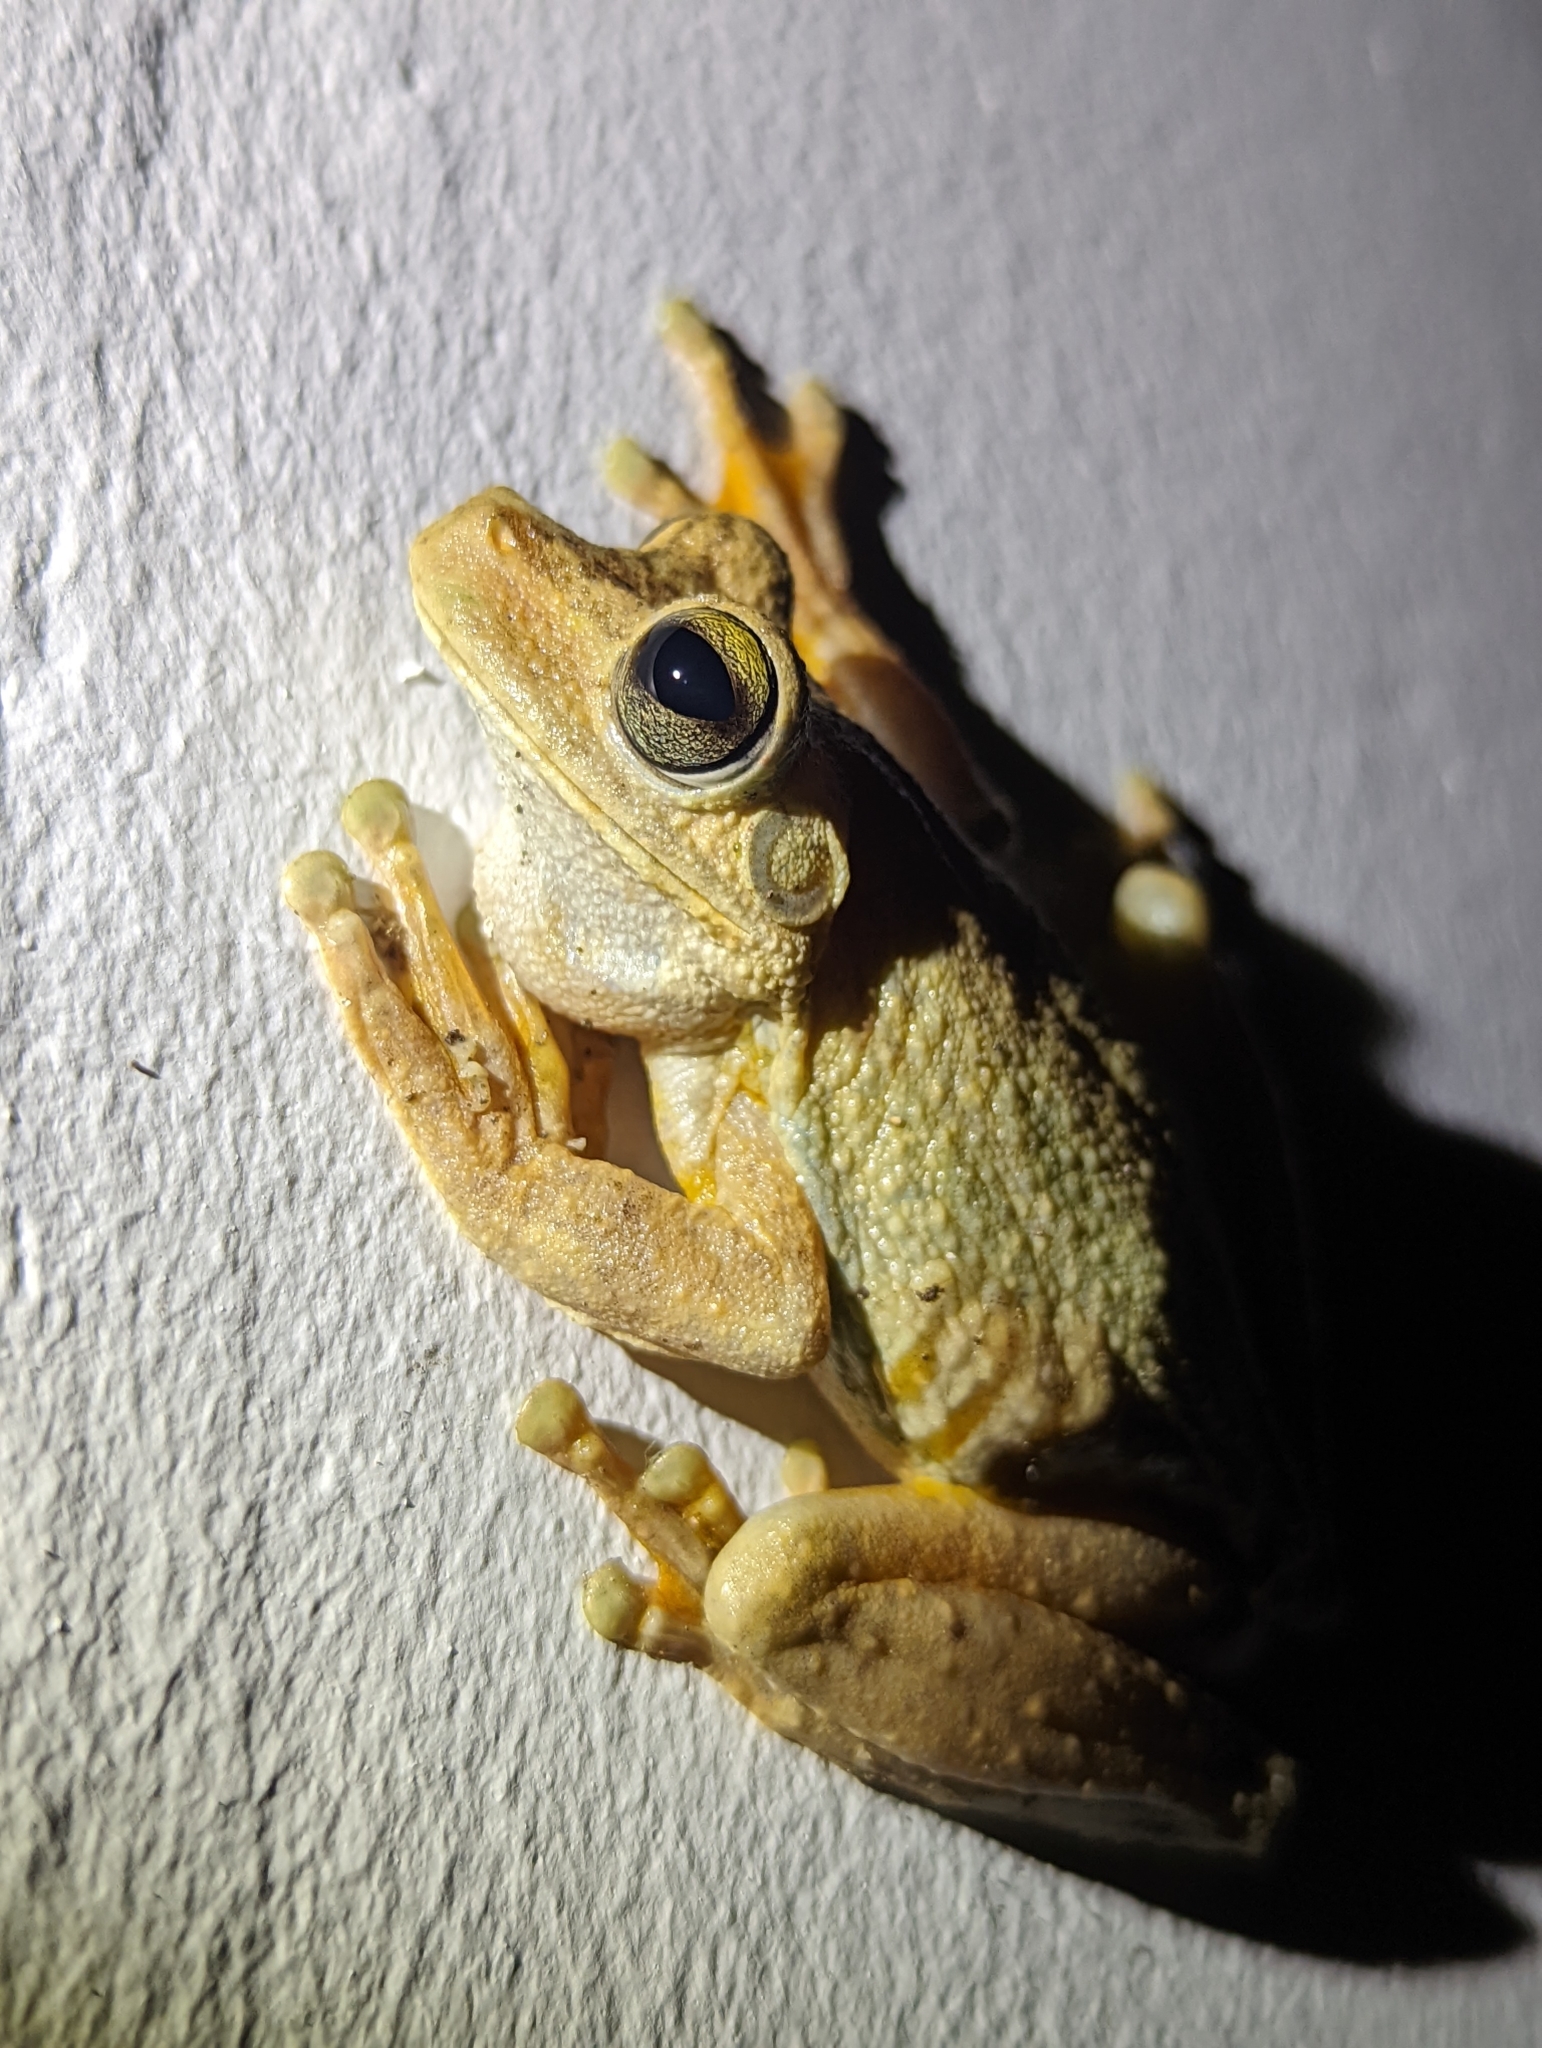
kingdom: Animalia
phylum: Chordata
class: Amphibia
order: Anura
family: Hylidae
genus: Boana
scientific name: Boana rosenbergi
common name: Rosenberg´s gladiator treefrog
